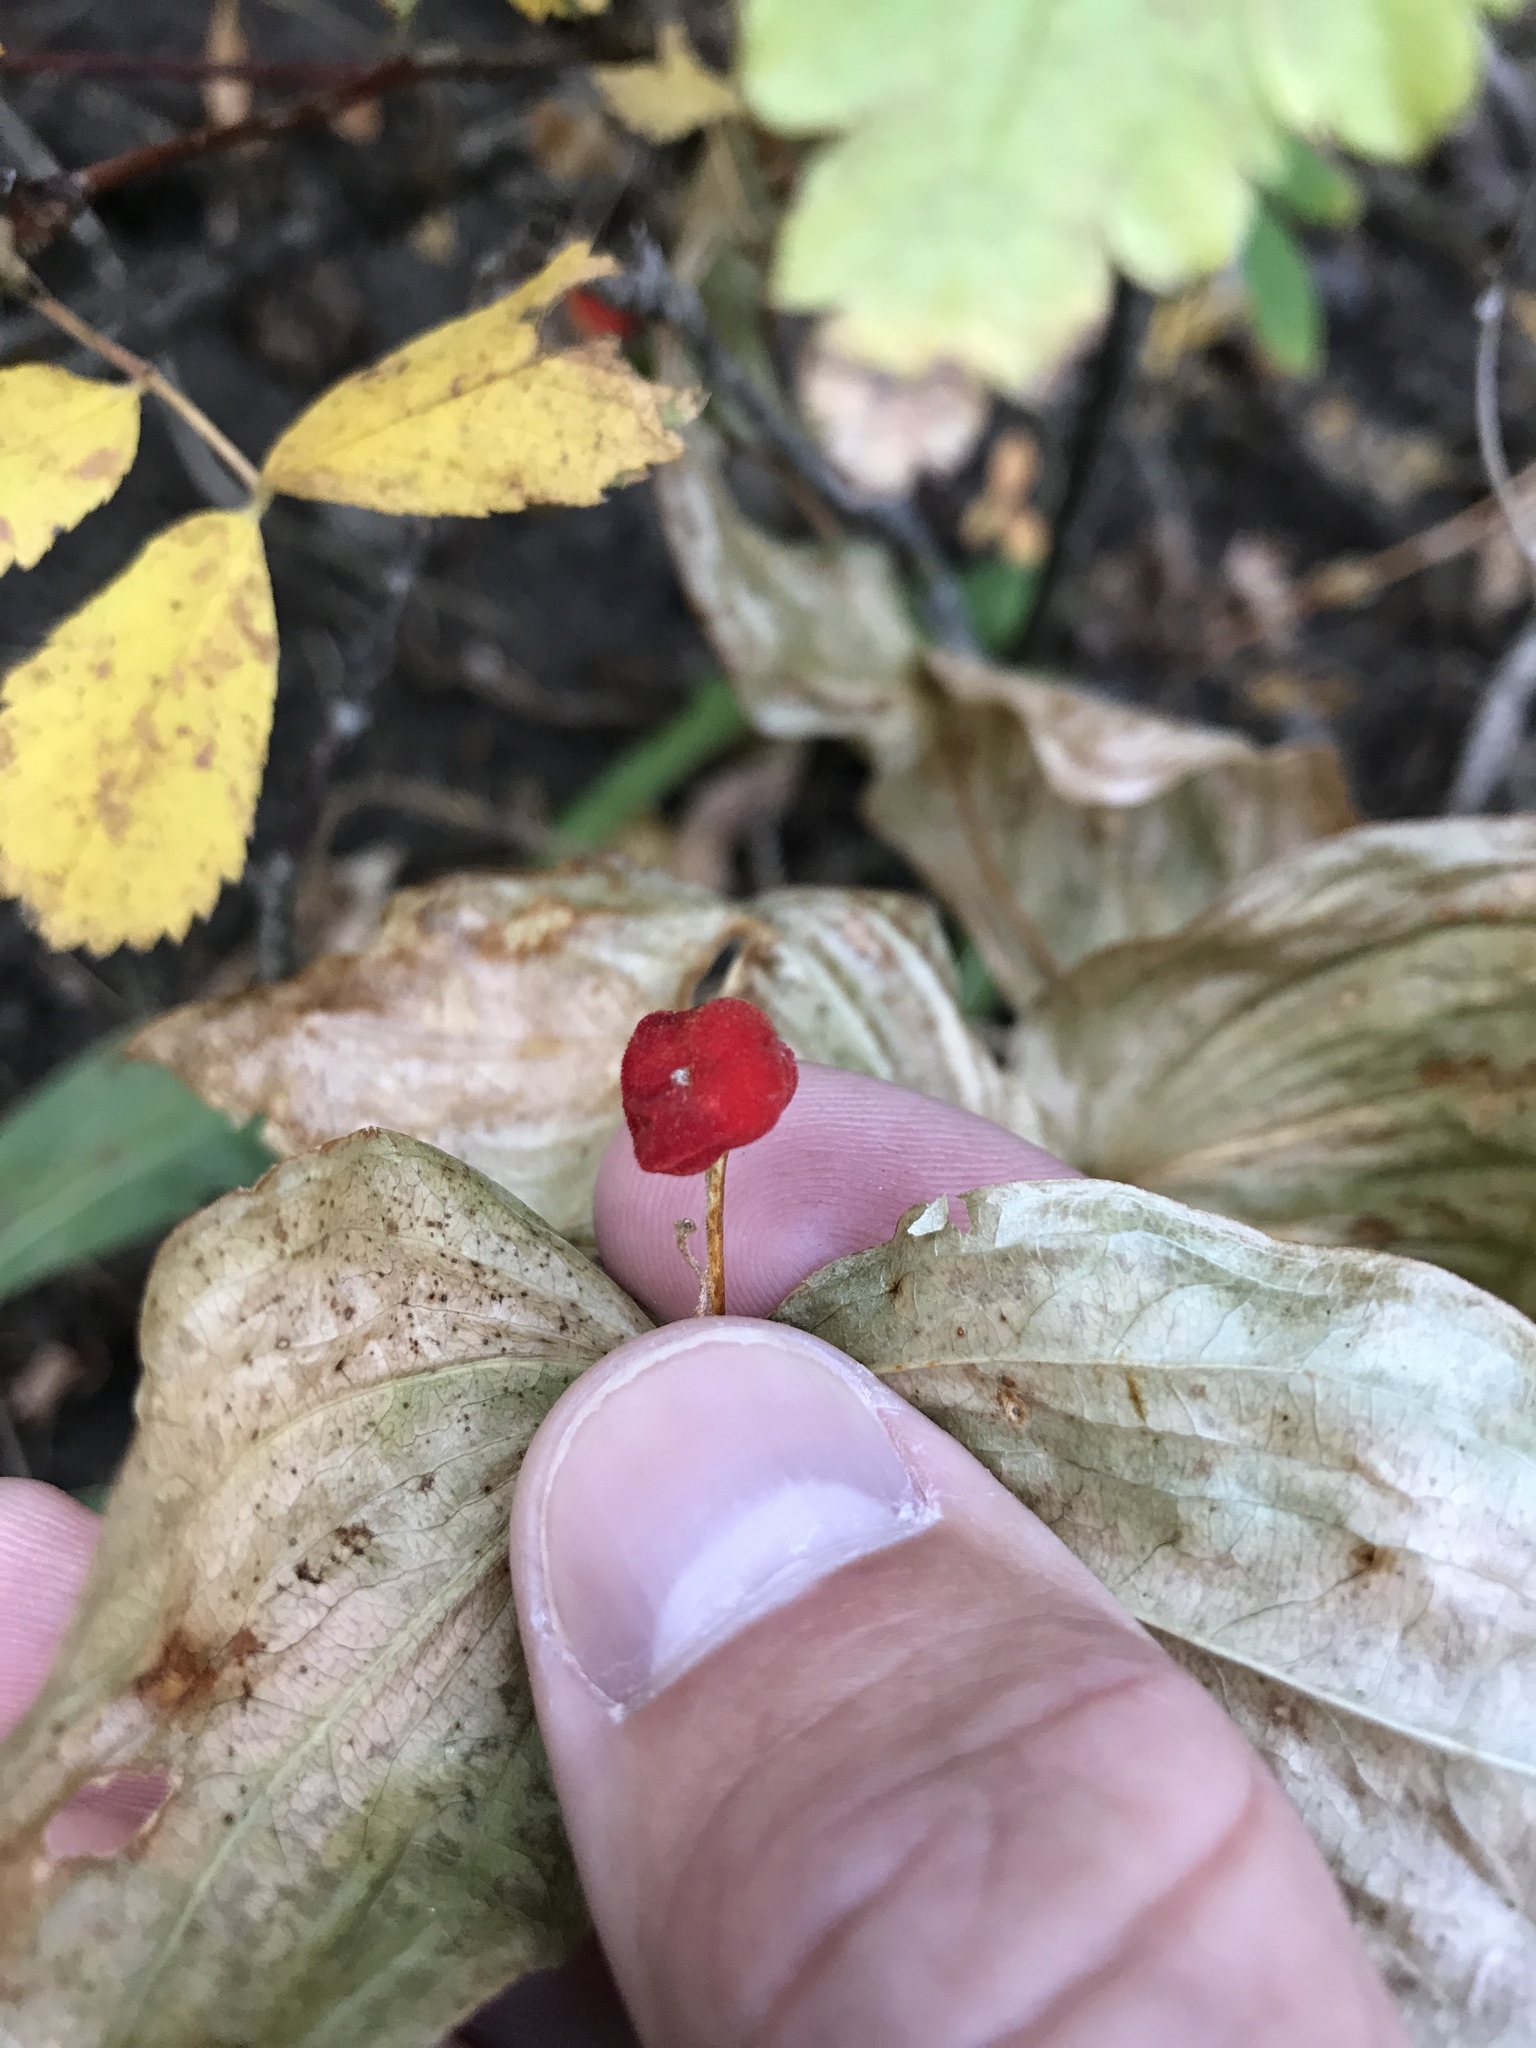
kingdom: Plantae
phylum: Tracheophyta
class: Liliopsida
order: Liliales
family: Liliaceae
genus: Prosartes
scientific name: Prosartes trachycarpa
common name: Rough-fruit fairy-bells
